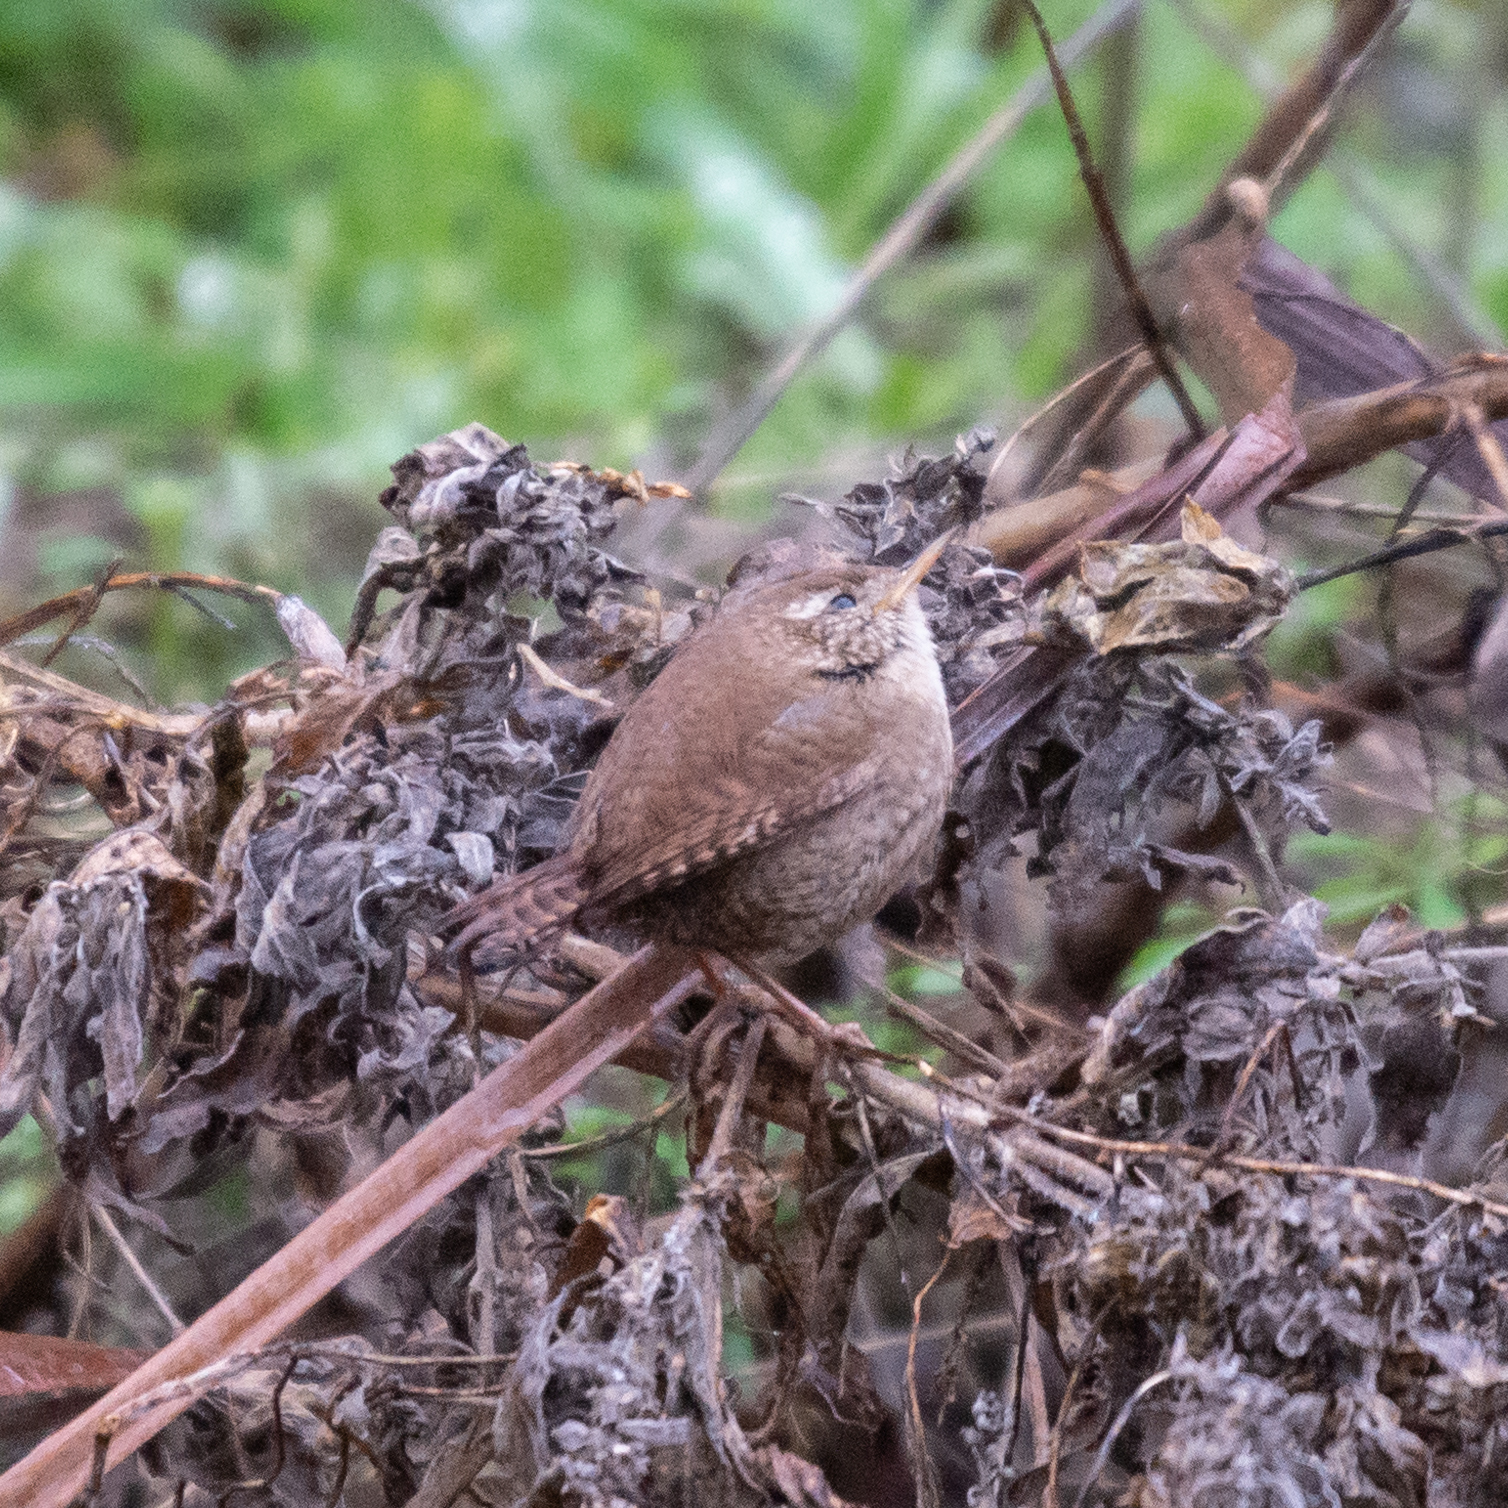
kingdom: Animalia
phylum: Chordata
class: Aves
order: Passeriformes
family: Troglodytidae
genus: Troglodytes
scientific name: Troglodytes troglodytes
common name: Eurasian wren
